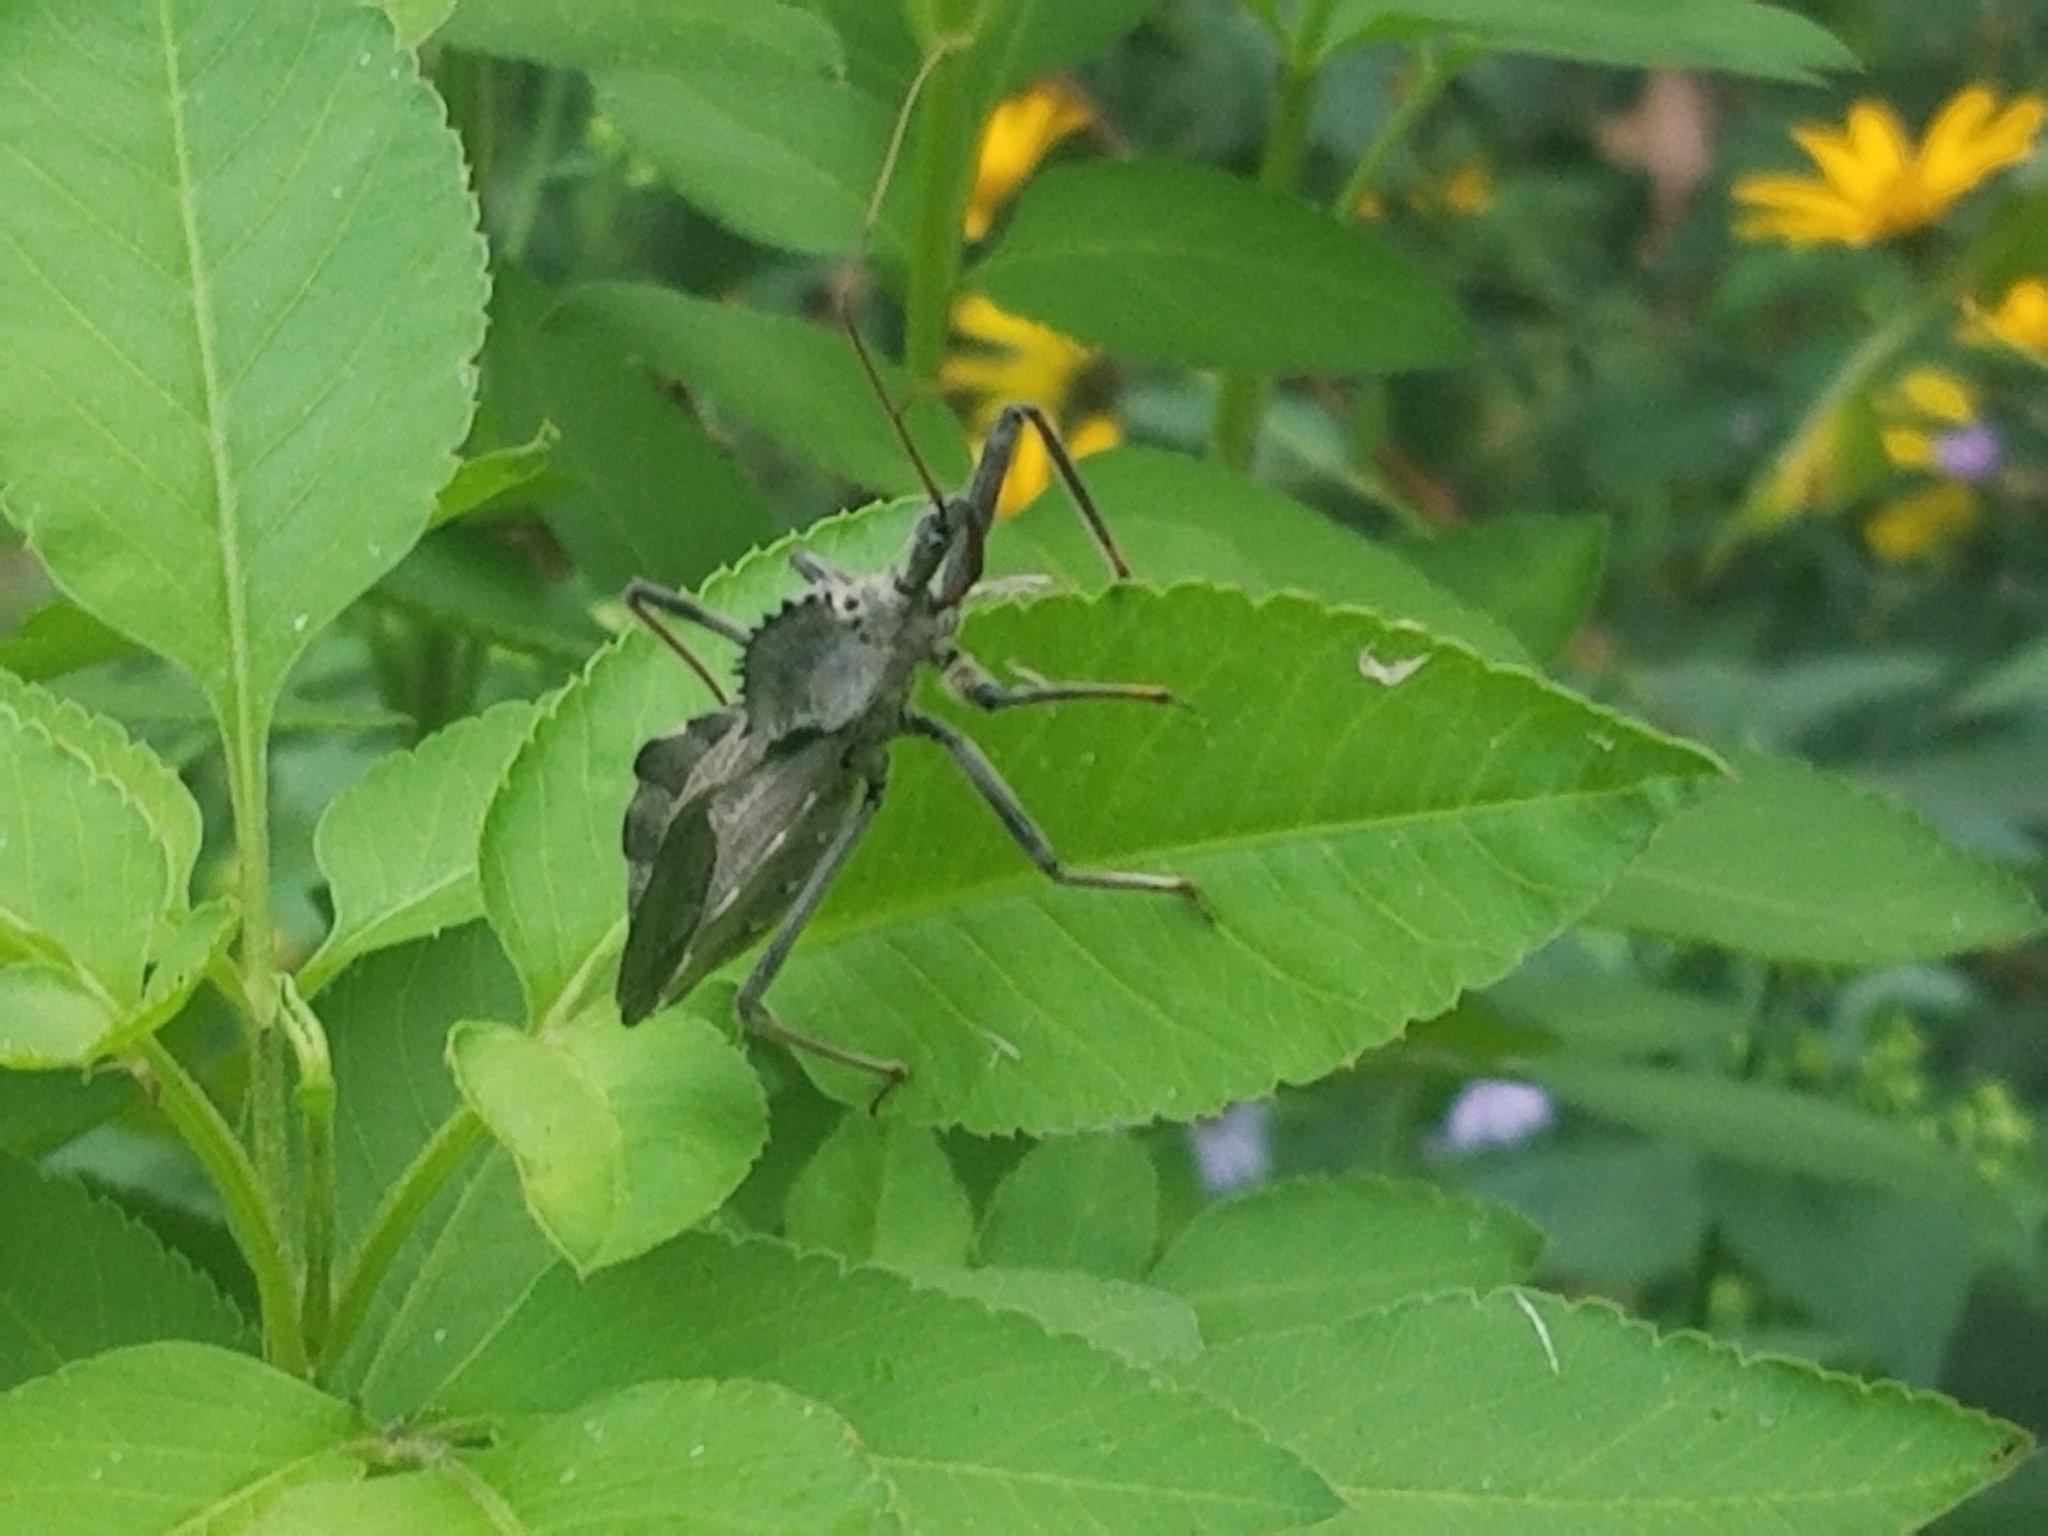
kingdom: Animalia
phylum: Arthropoda
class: Insecta
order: Hemiptera
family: Reduviidae
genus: Arilus
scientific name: Arilus cristatus
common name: North american wheel bug
